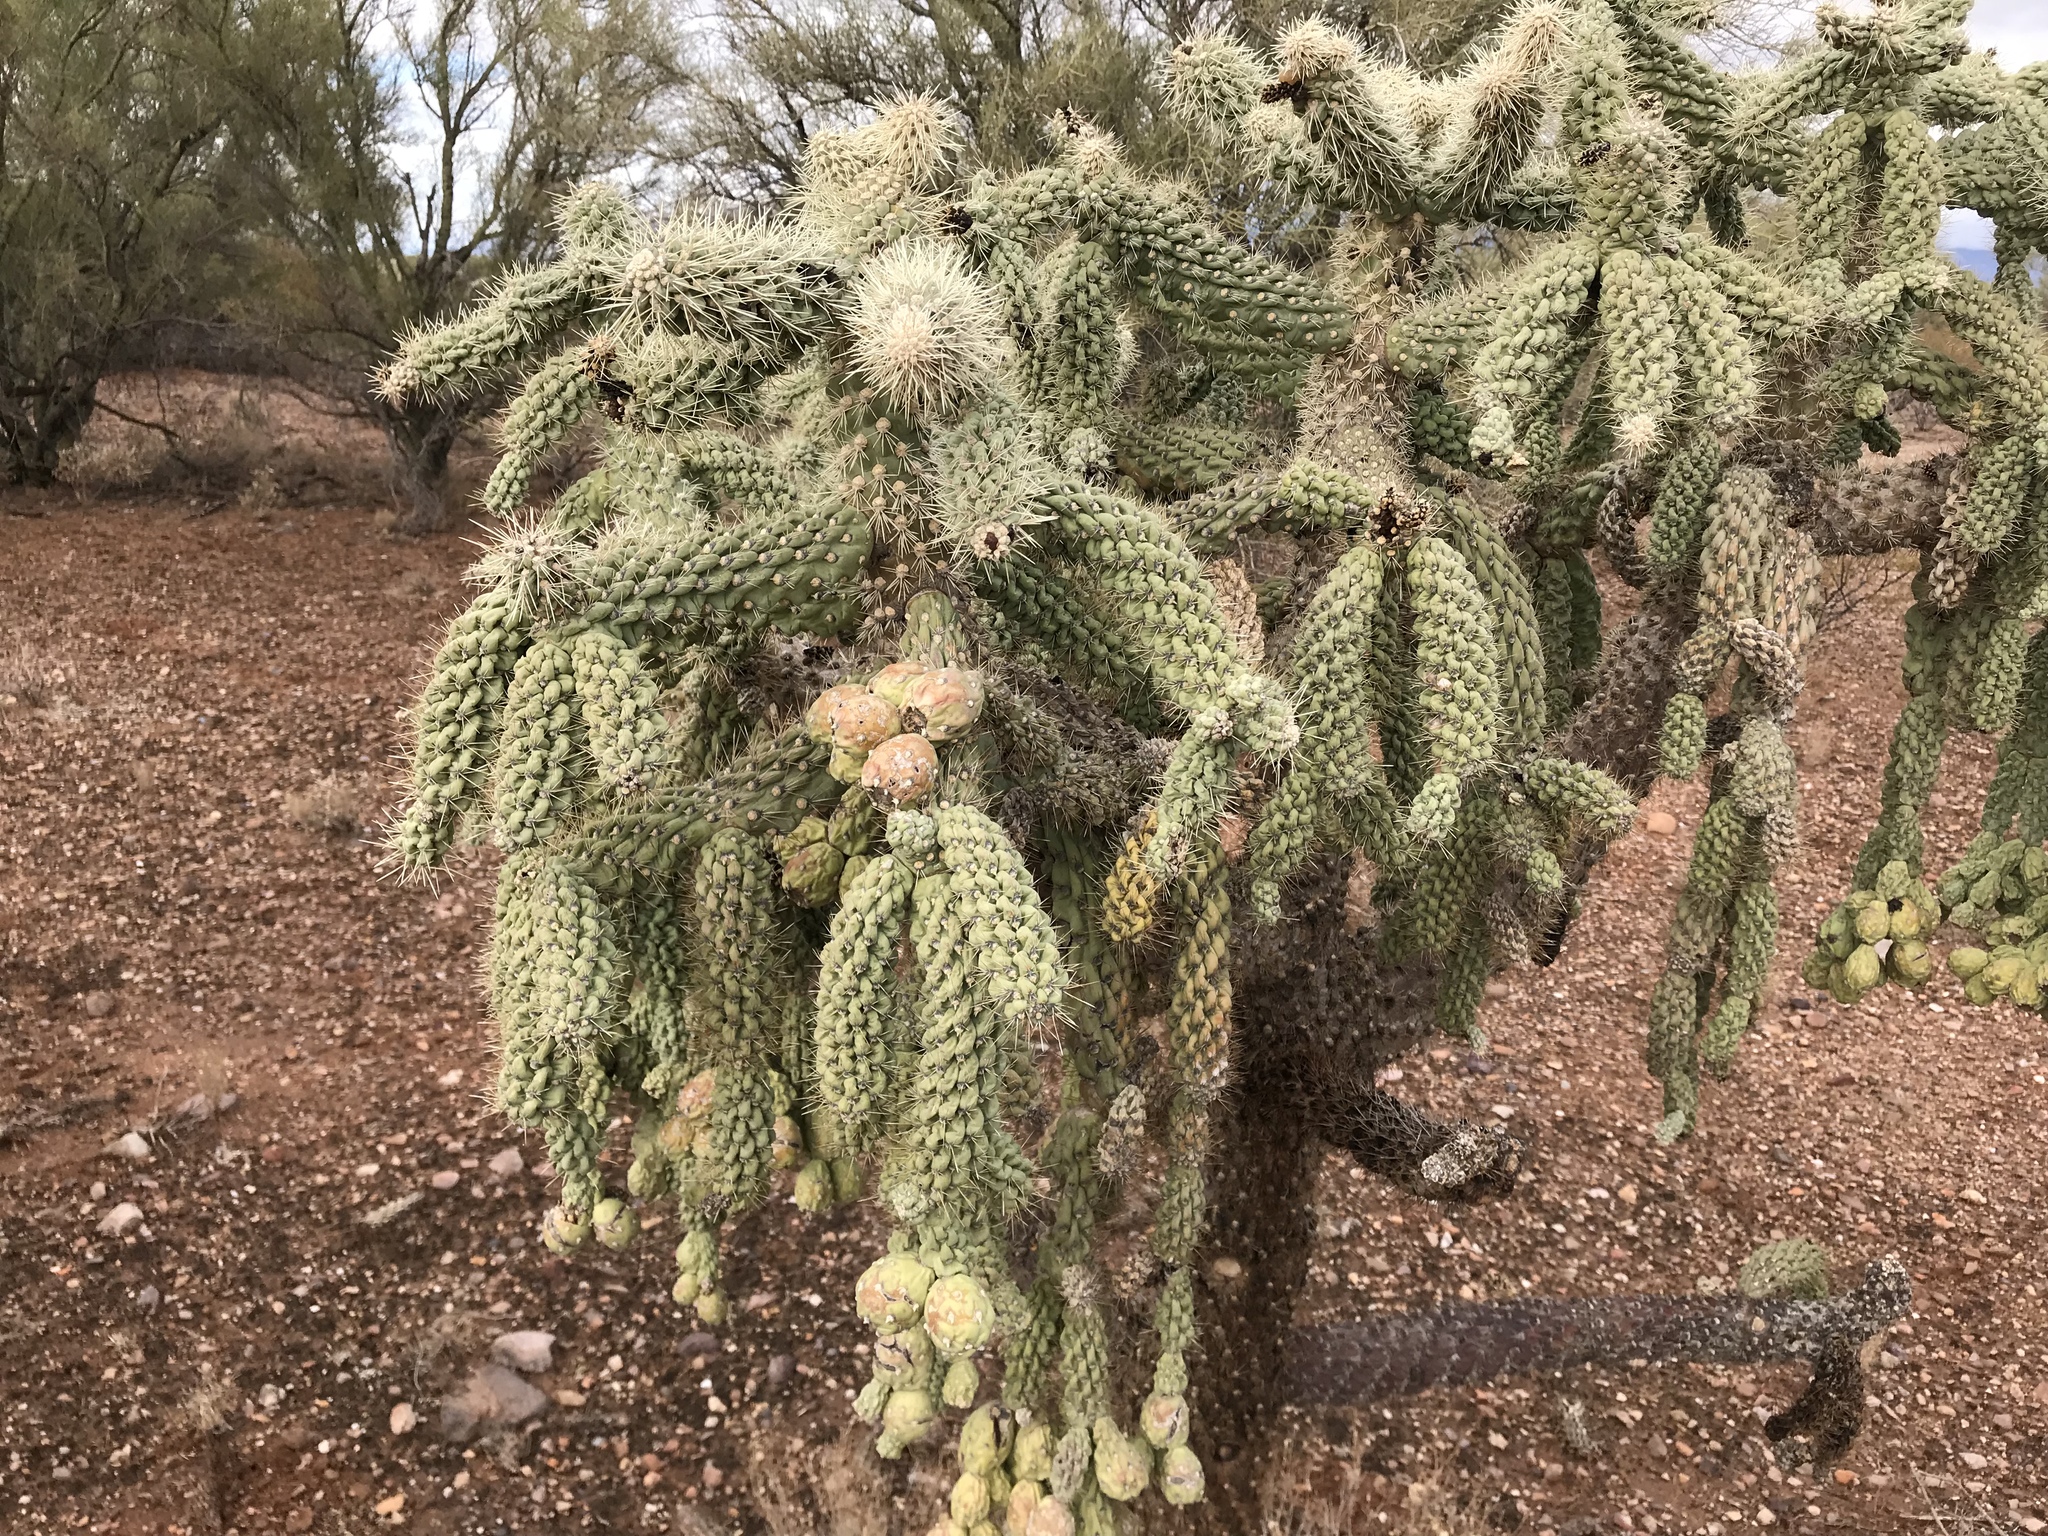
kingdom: Plantae
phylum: Tracheophyta
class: Magnoliopsida
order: Caryophyllales
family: Cactaceae
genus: Cylindropuntia
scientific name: Cylindropuntia fulgida
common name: Jumping cholla
